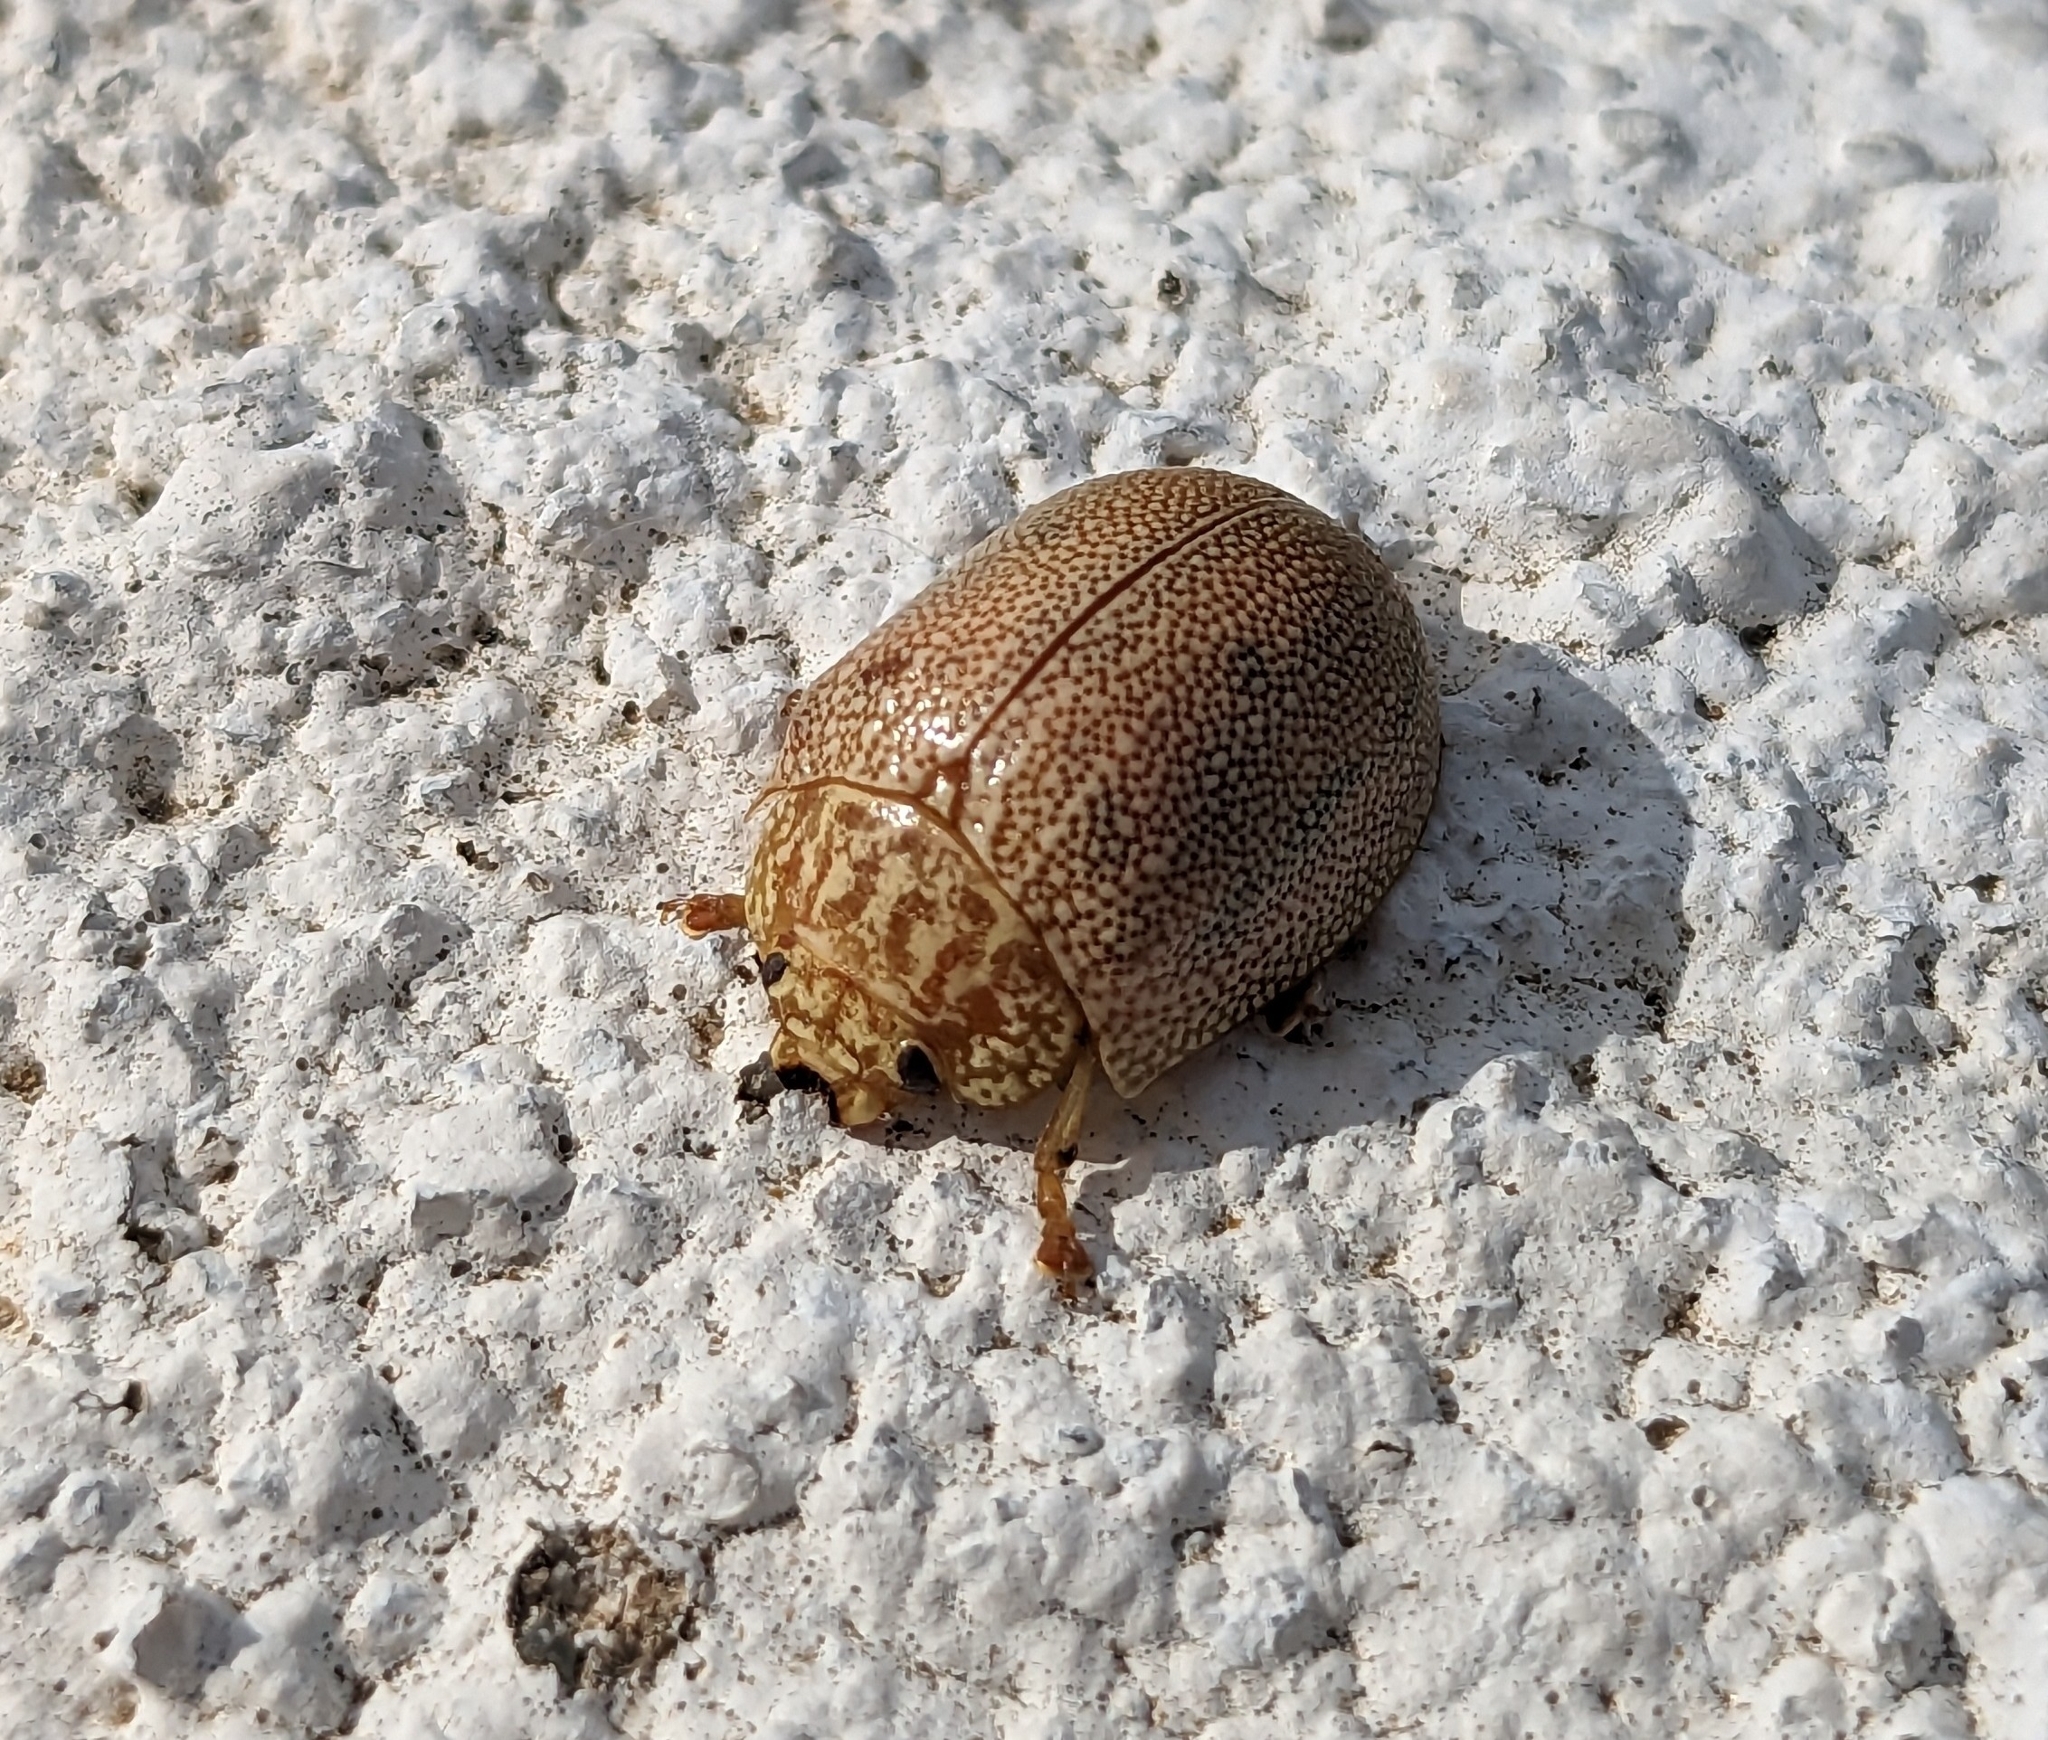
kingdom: Animalia
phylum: Arthropoda
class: Insecta
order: Coleoptera
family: Chrysomelidae
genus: Paropsis
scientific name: Paropsis
